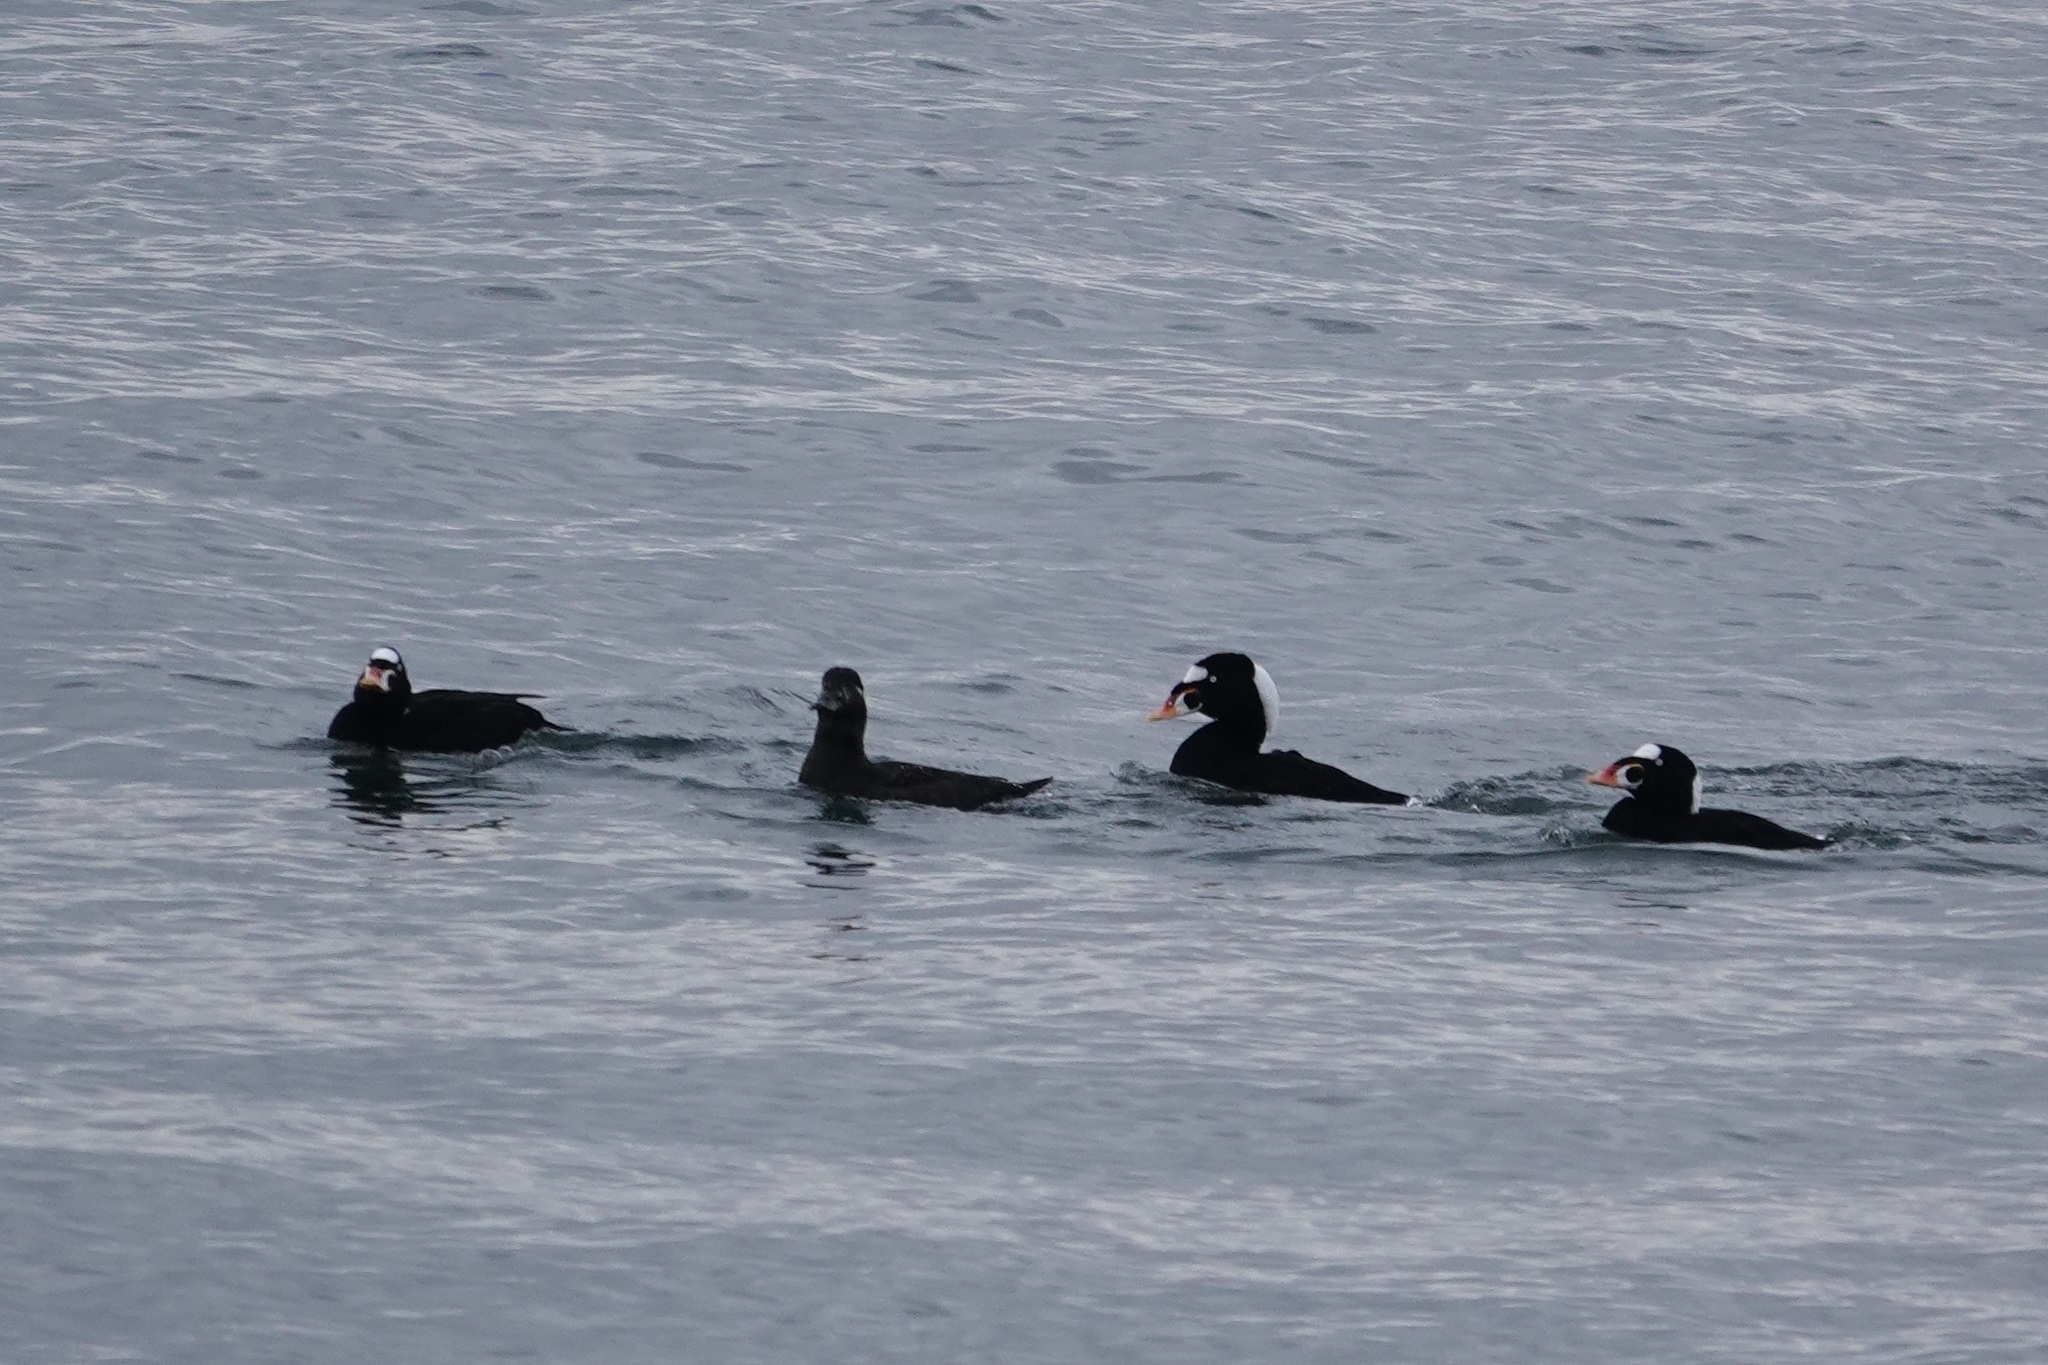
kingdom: Animalia
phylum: Chordata
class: Aves
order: Anseriformes
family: Anatidae
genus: Melanitta
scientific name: Melanitta perspicillata
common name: Surf scoter
